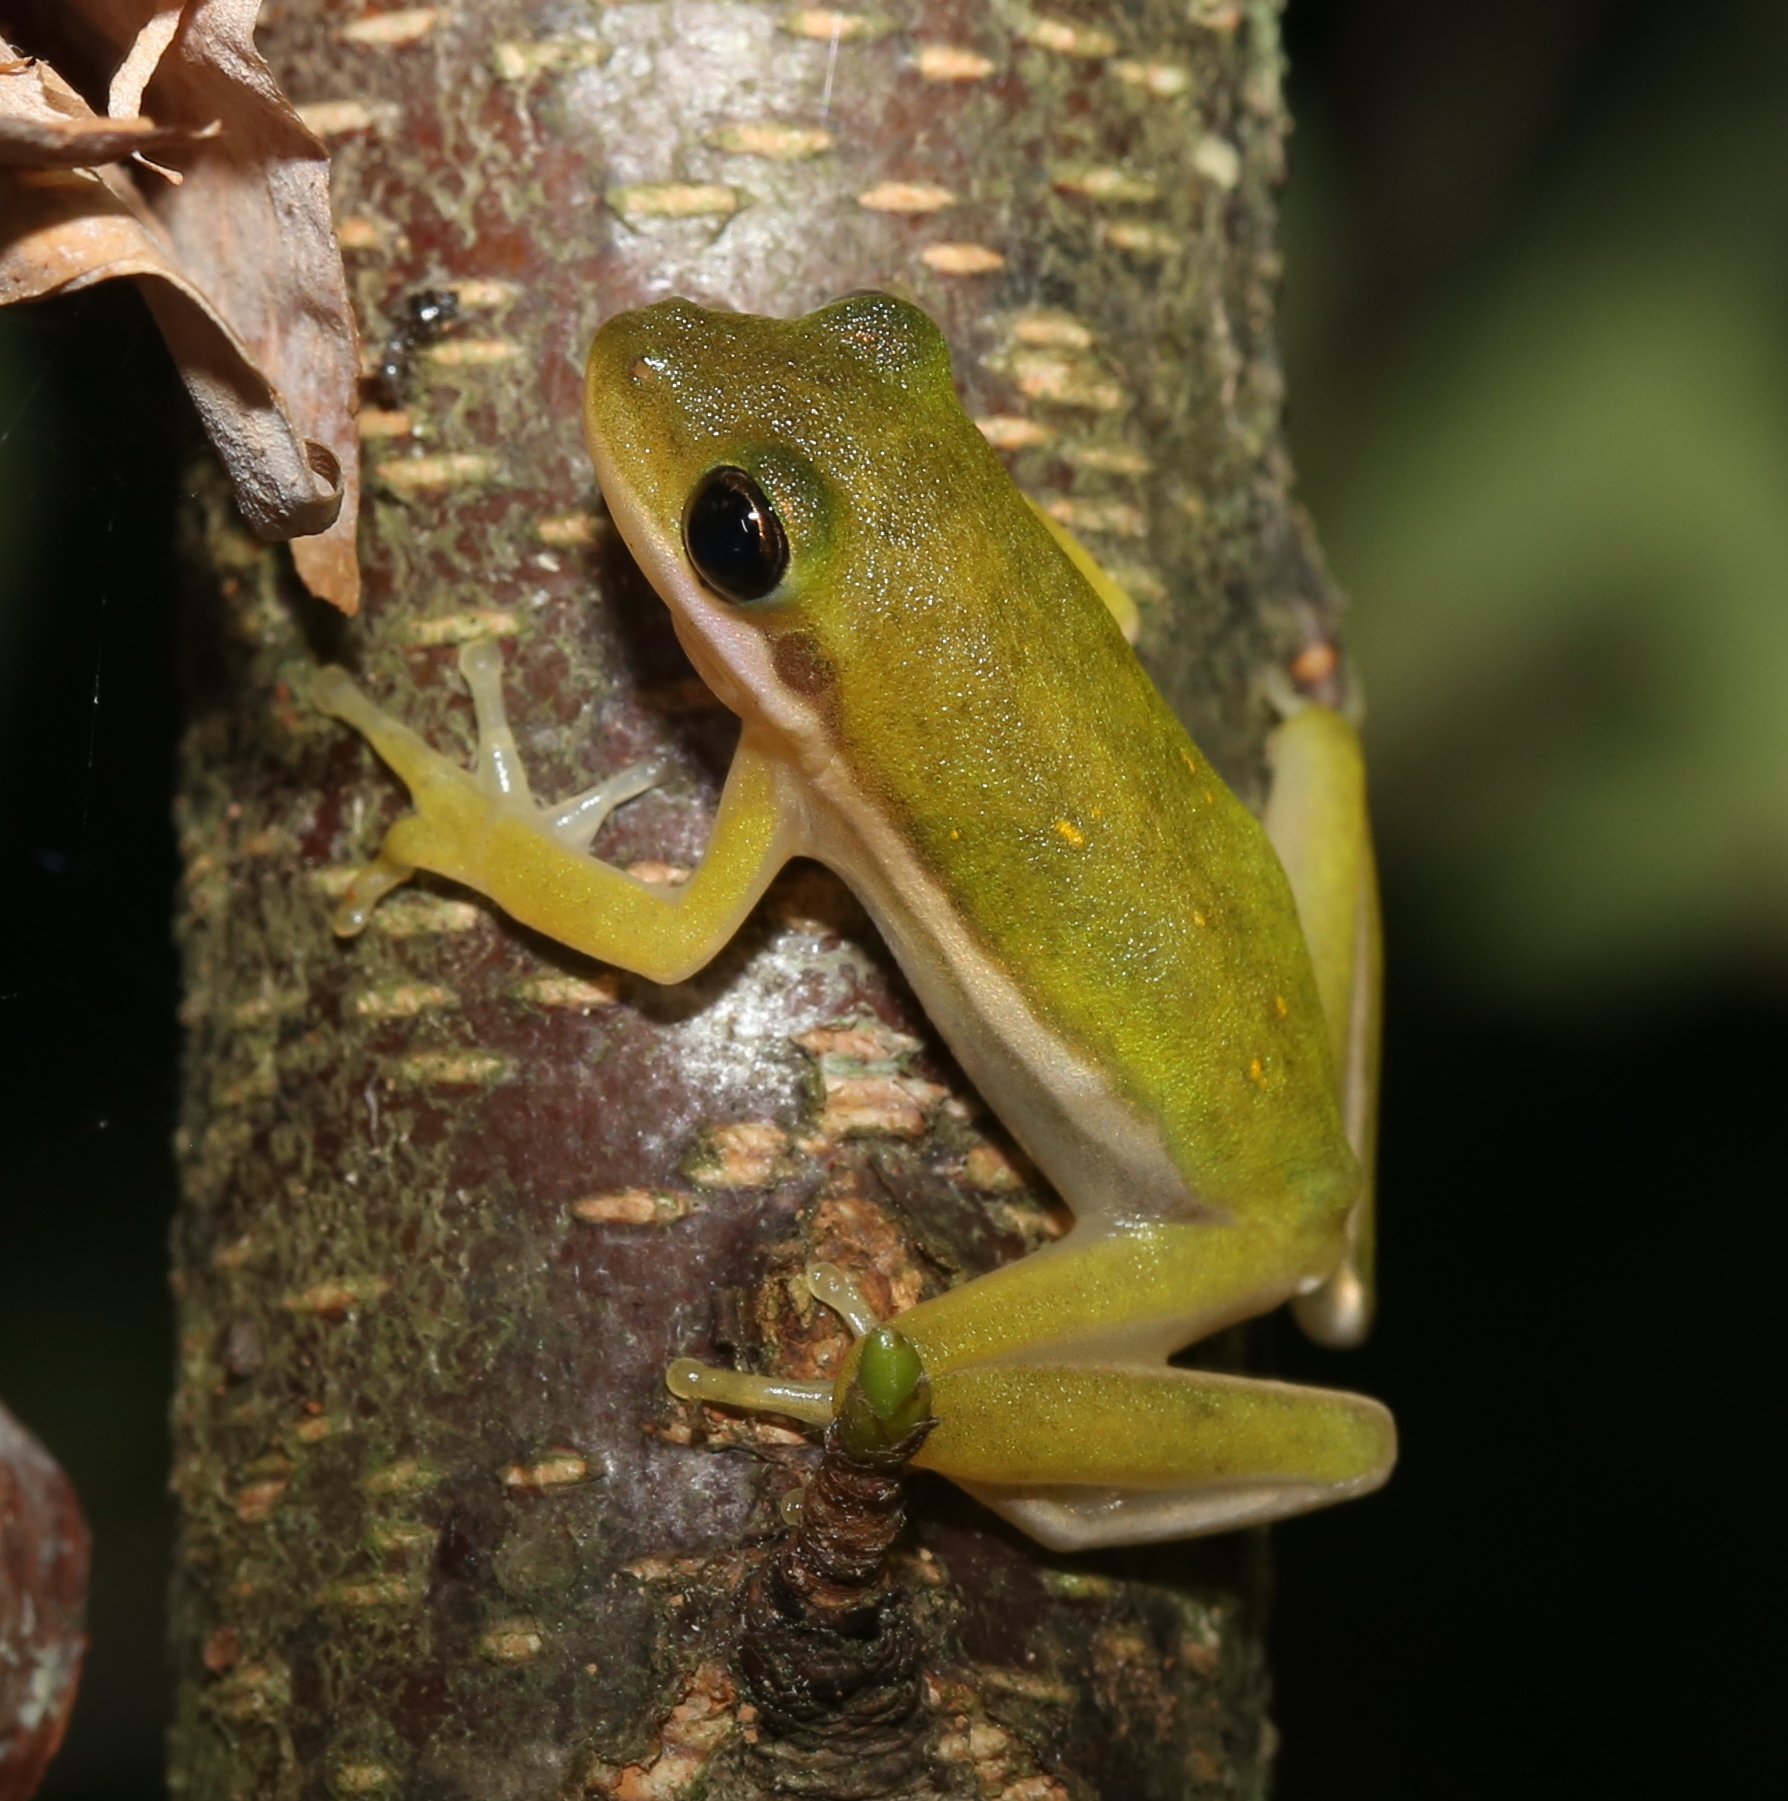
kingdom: Animalia
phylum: Chordata
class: Amphibia
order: Anura
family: Hylidae
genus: Dryophytes
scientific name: Dryophytes cinereus
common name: Green treefrog
